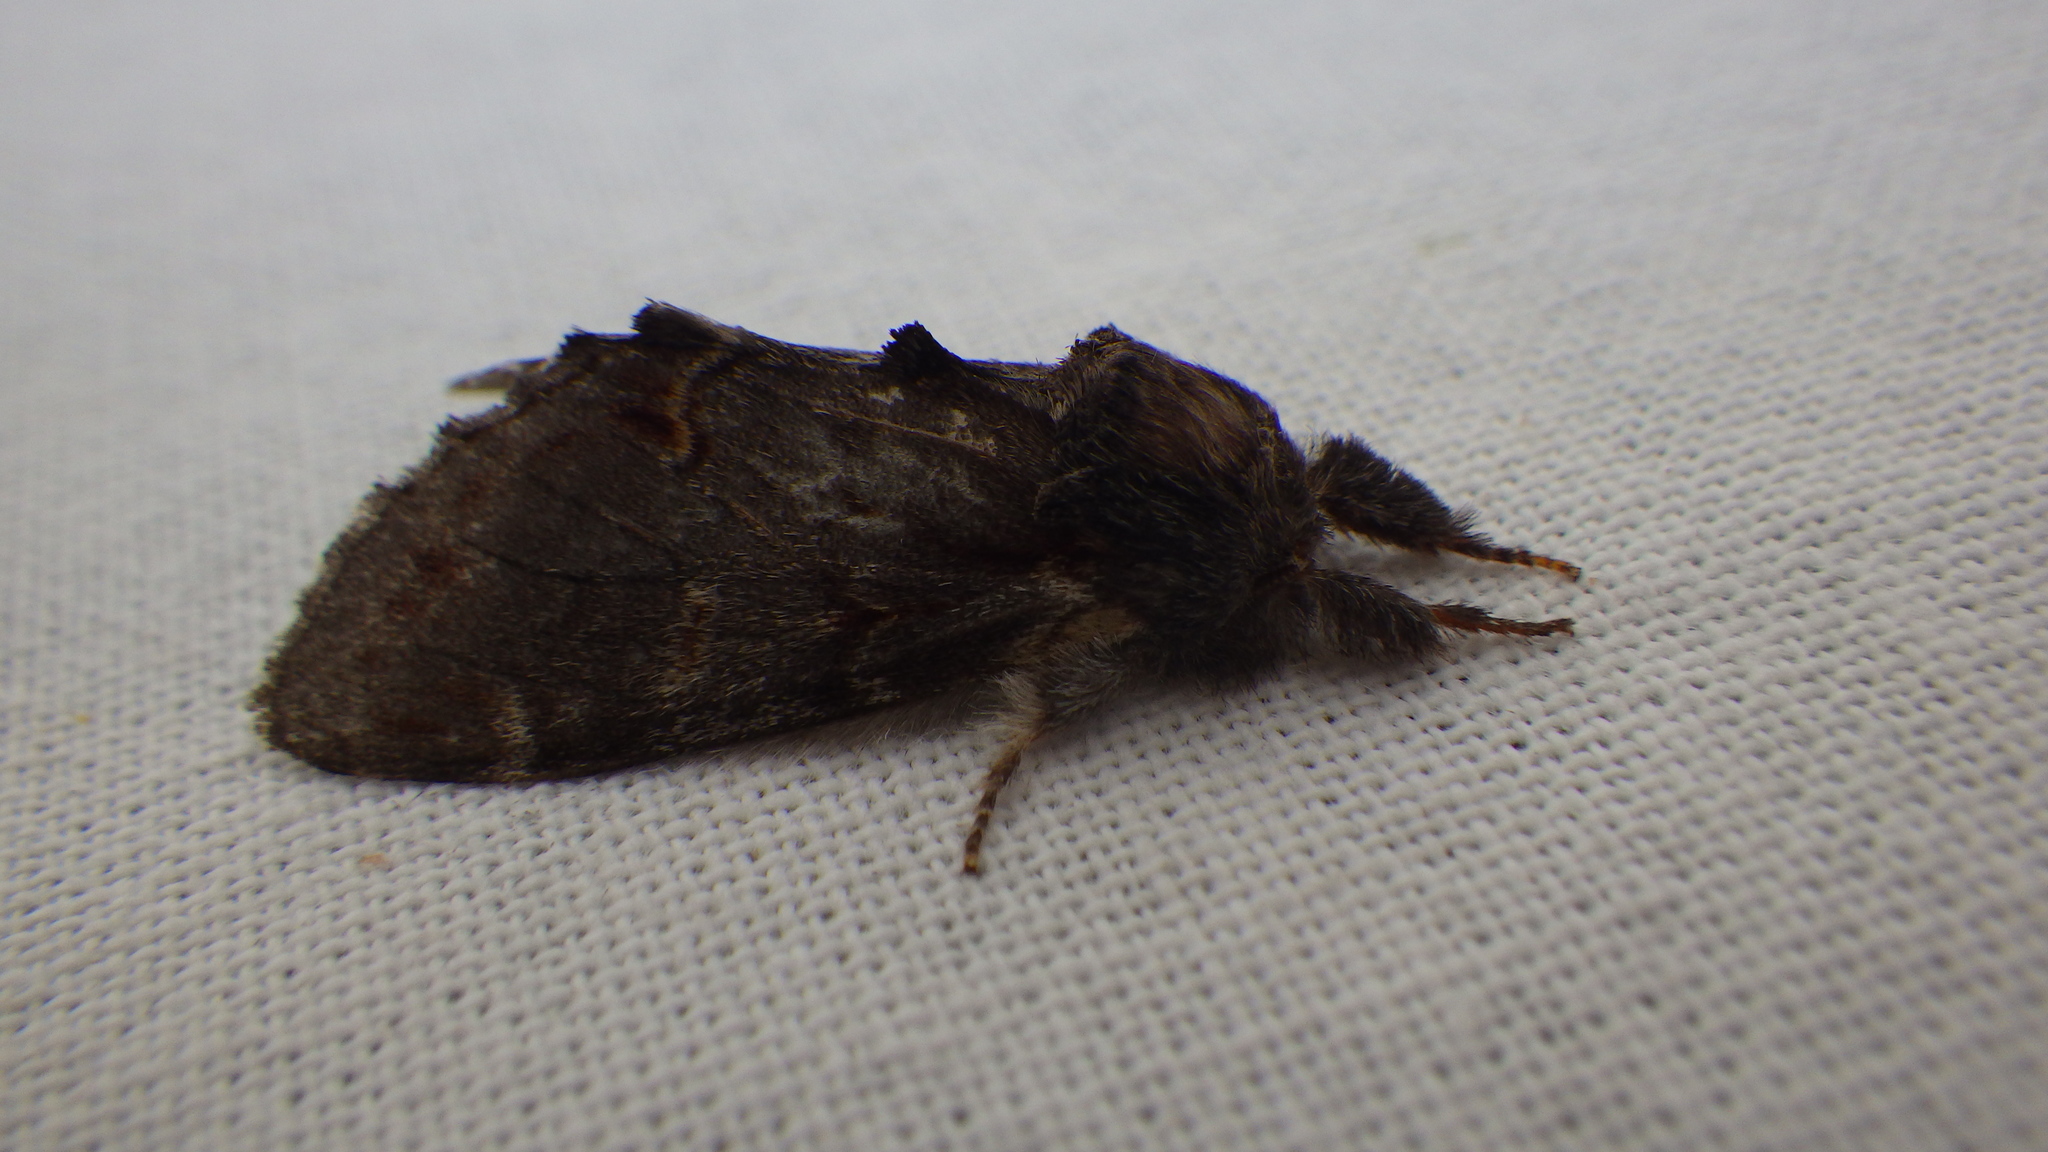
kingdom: Animalia
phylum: Arthropoda
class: Insecta
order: Lepidoptera
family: Notodontidae
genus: Notodonta
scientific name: Notodonta dromedarius
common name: Iron prominent
